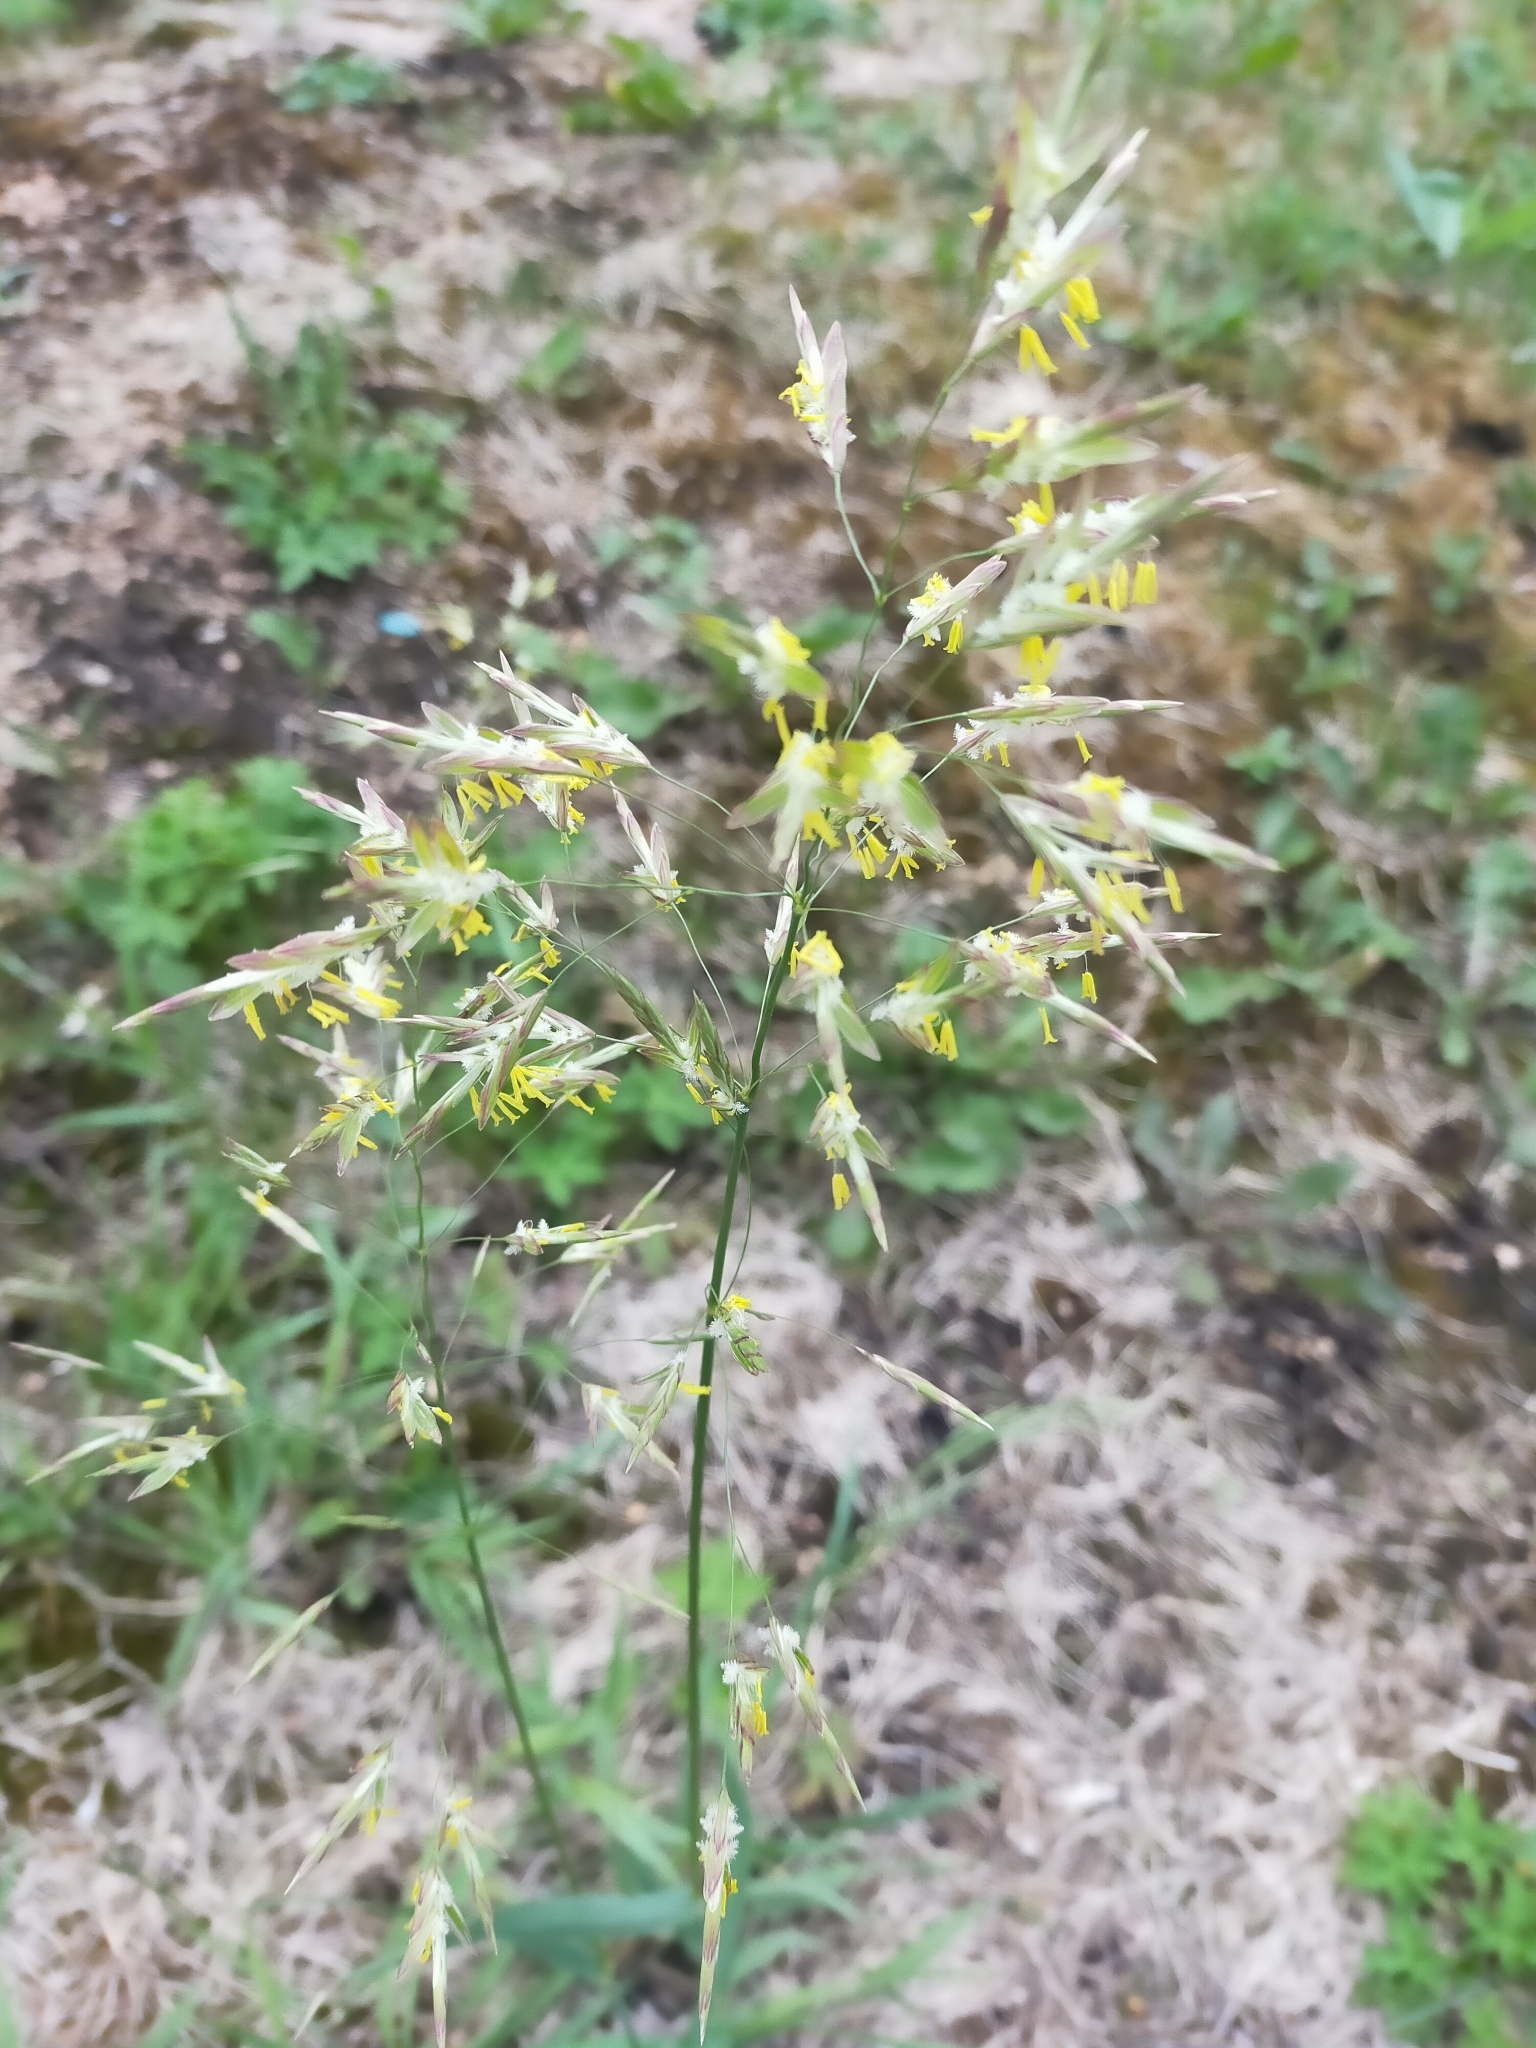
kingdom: Plantae
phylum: Tracheophyta
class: Liliopsida
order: Poales
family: Poaceae
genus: Bromus
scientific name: Bromus inermis
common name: Smooth brome
